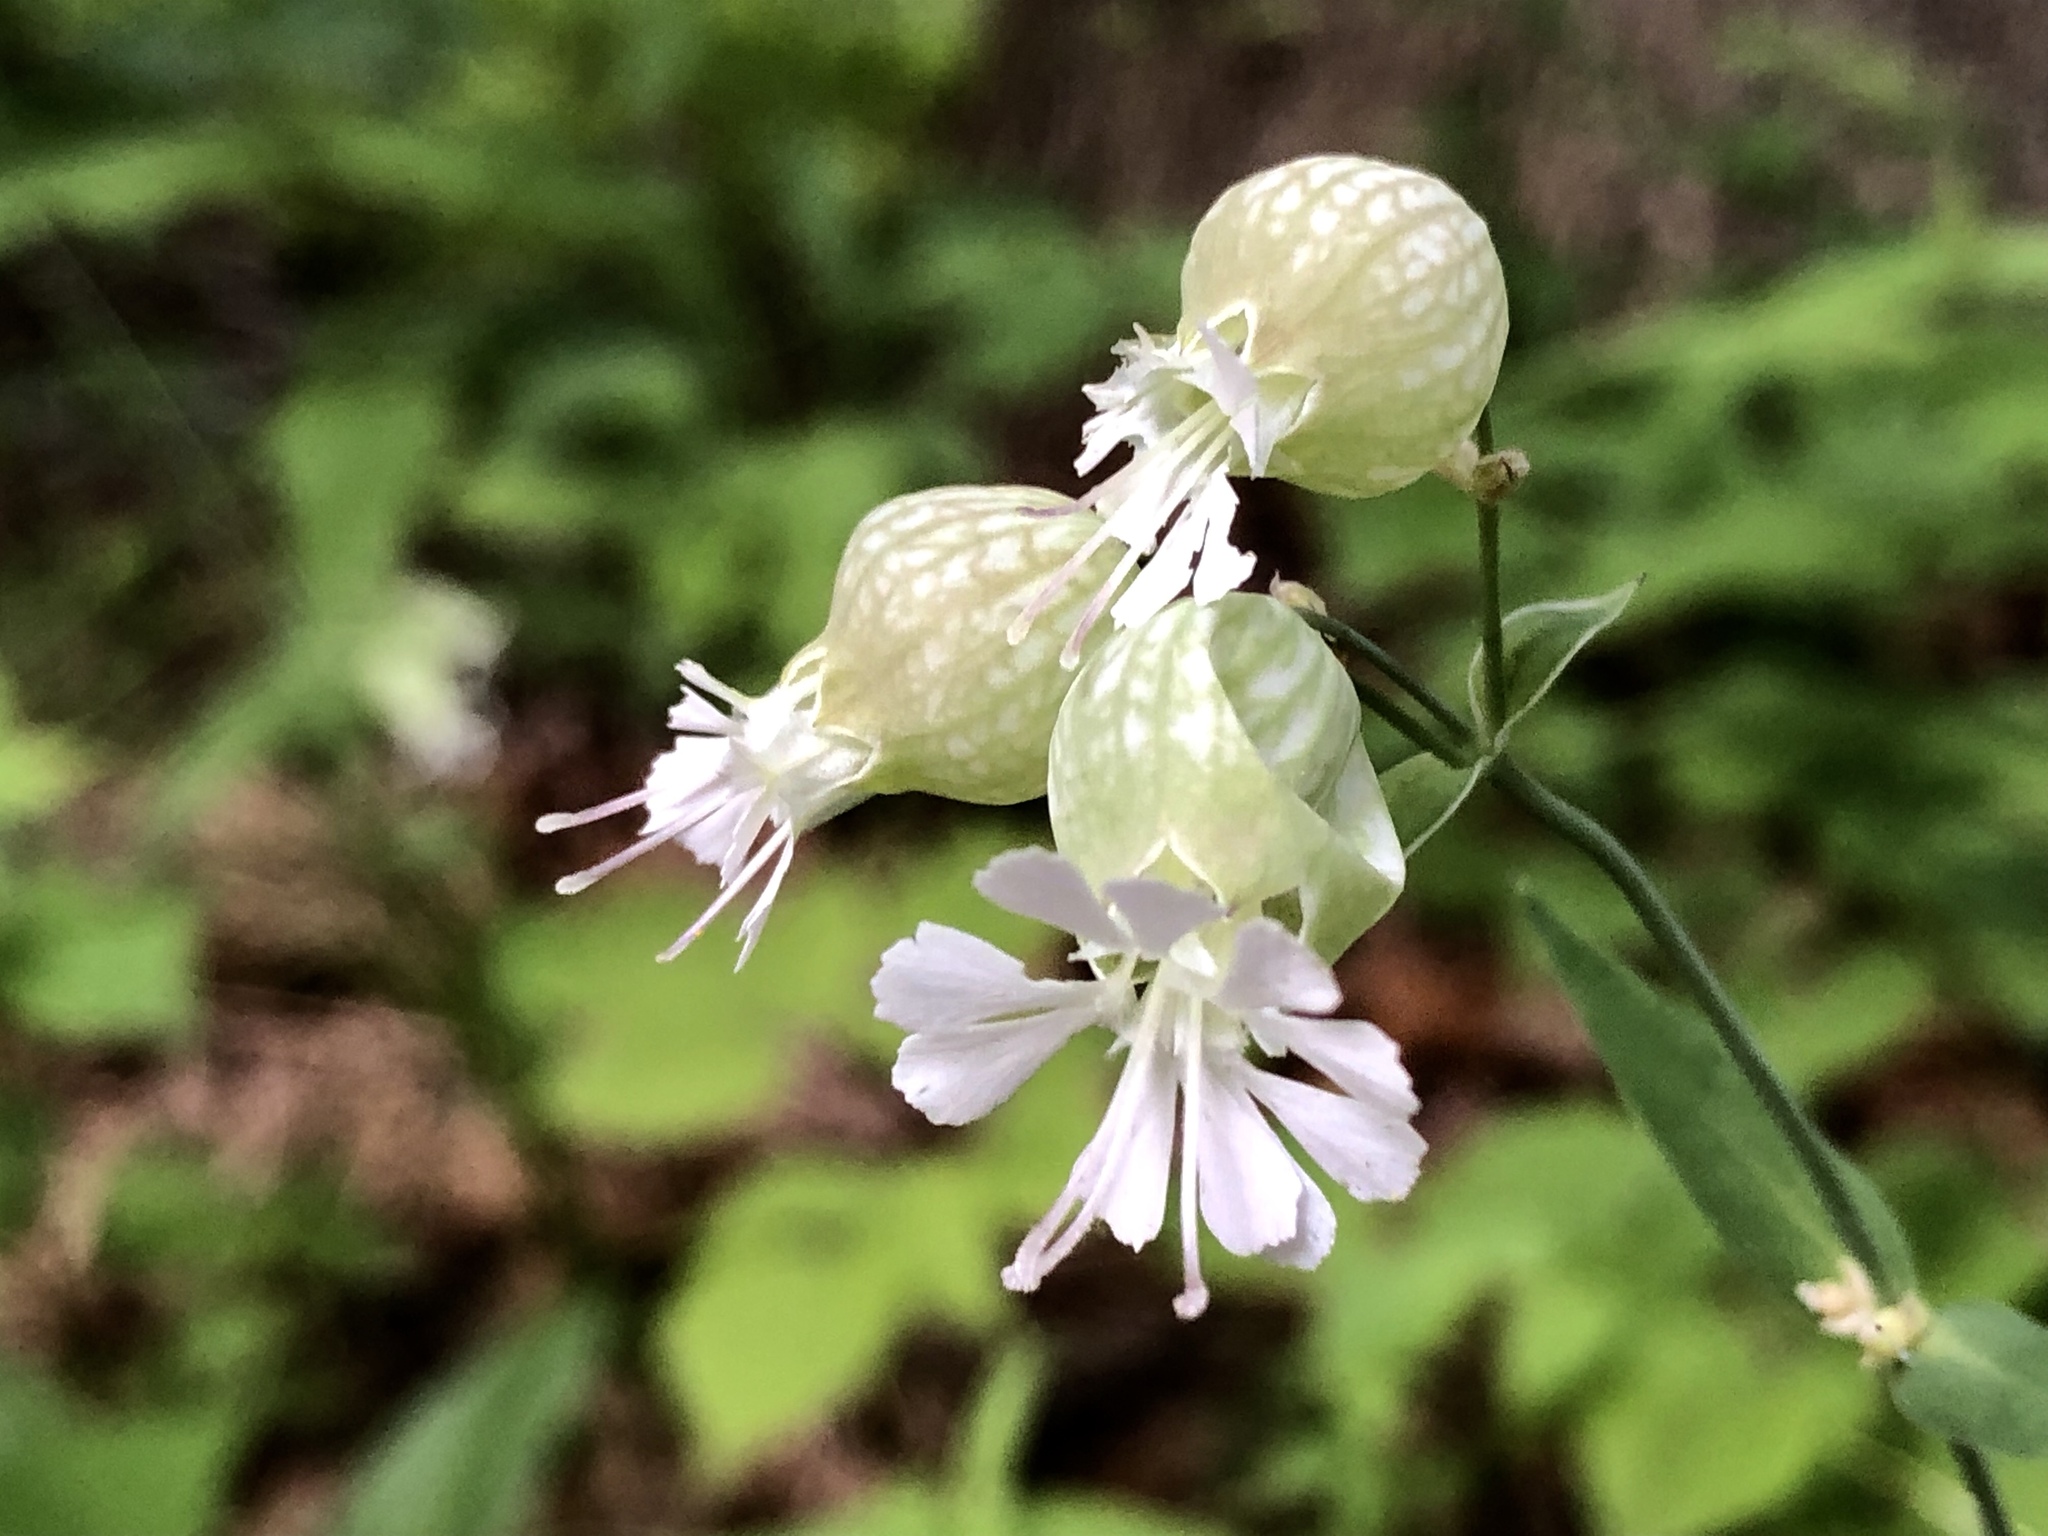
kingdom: Plantae
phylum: Tracheophyta
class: Magnoliopsida
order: Caryophyllales
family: Caryophyllaceae
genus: Silene
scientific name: Silene vulgaris
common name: Bladder campion
